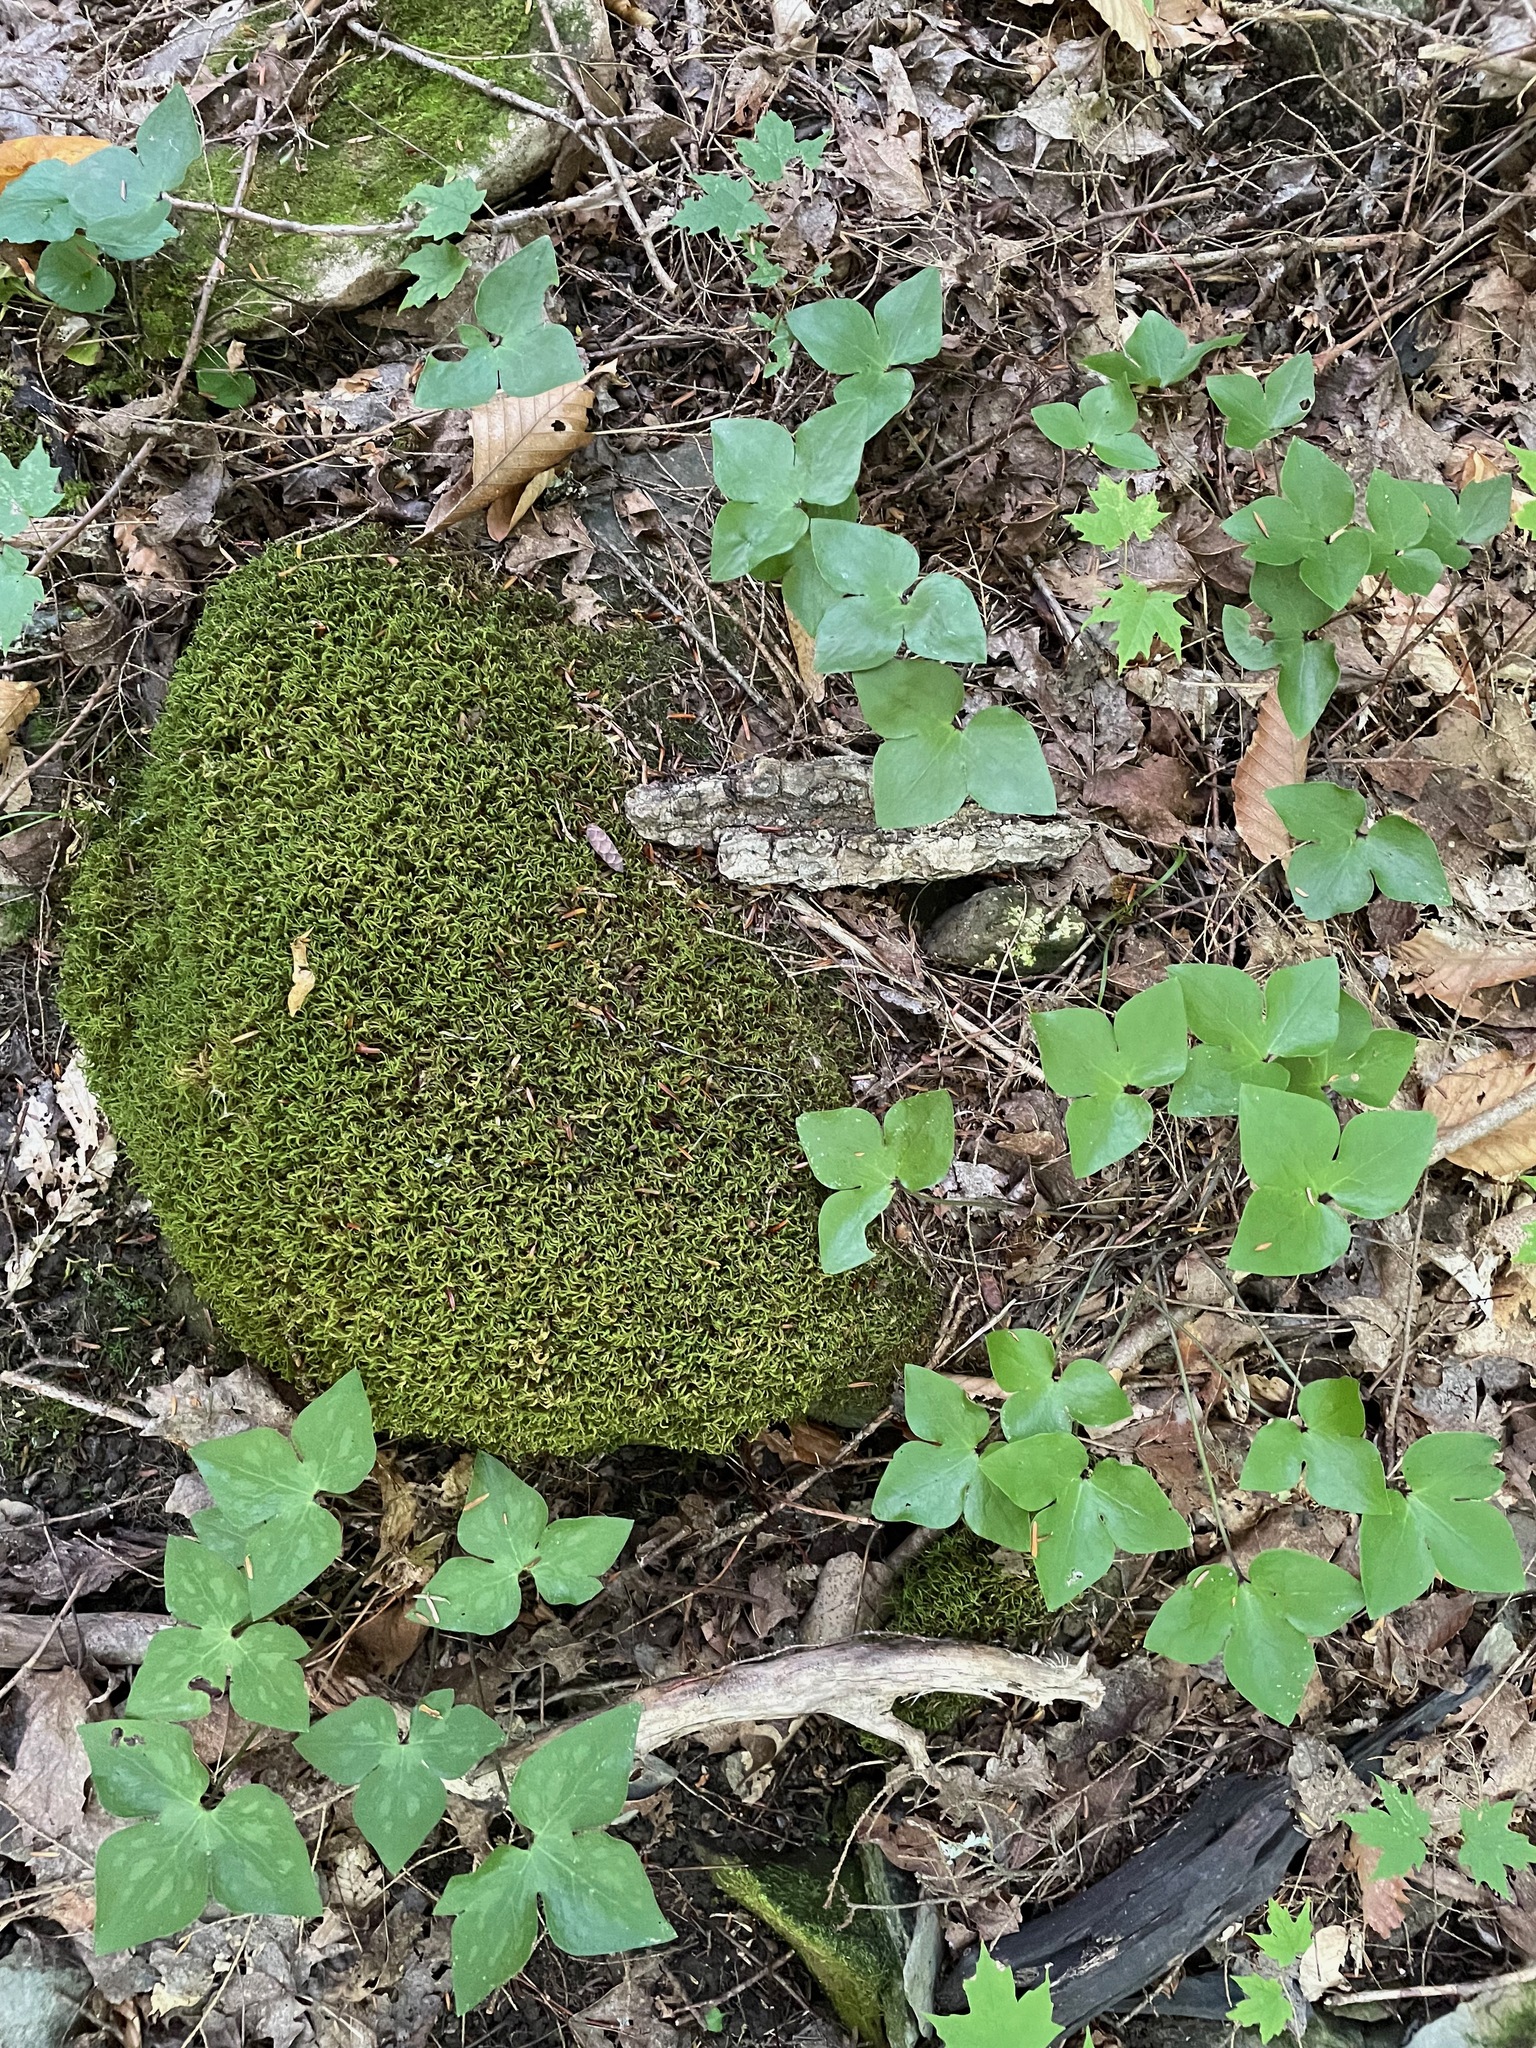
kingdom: Plantae
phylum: Tracheophyta
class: Magnoliopsida
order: Ranunculales
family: Ranunculaceae
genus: Hepatica
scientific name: Hepatica acutiloba
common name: Sharp-lobed hepatica
